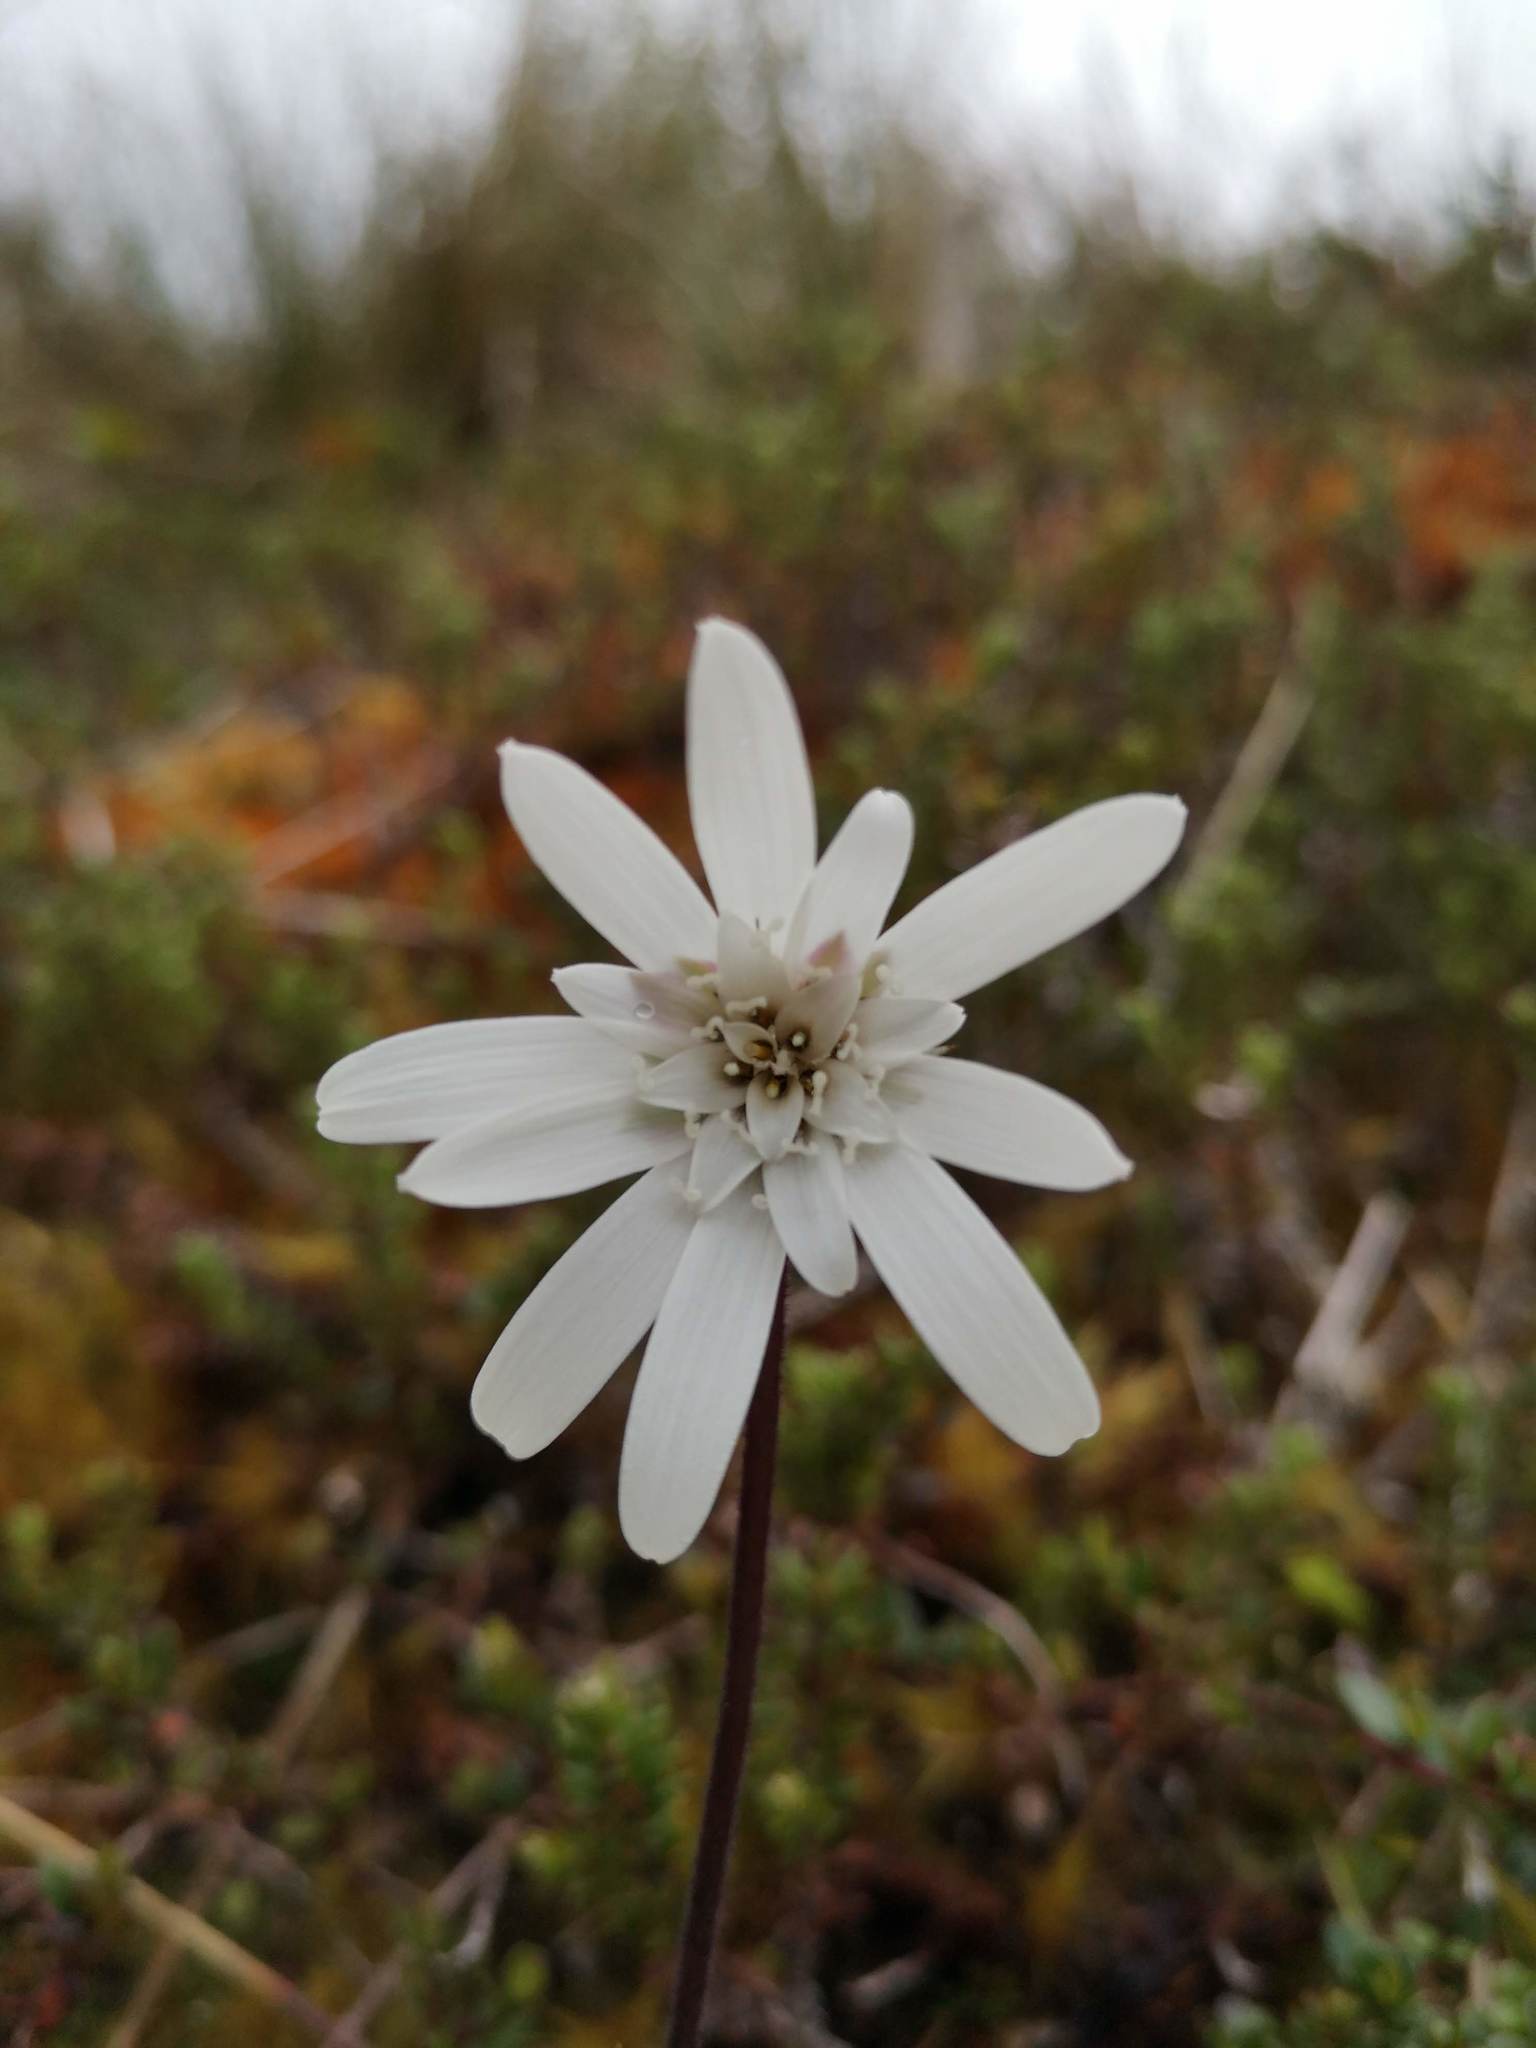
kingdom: Plantae
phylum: Tracheophyta
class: Magnoliopsida
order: Asterales
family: Asteraceae
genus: Perezia
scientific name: Perezia magellanica
